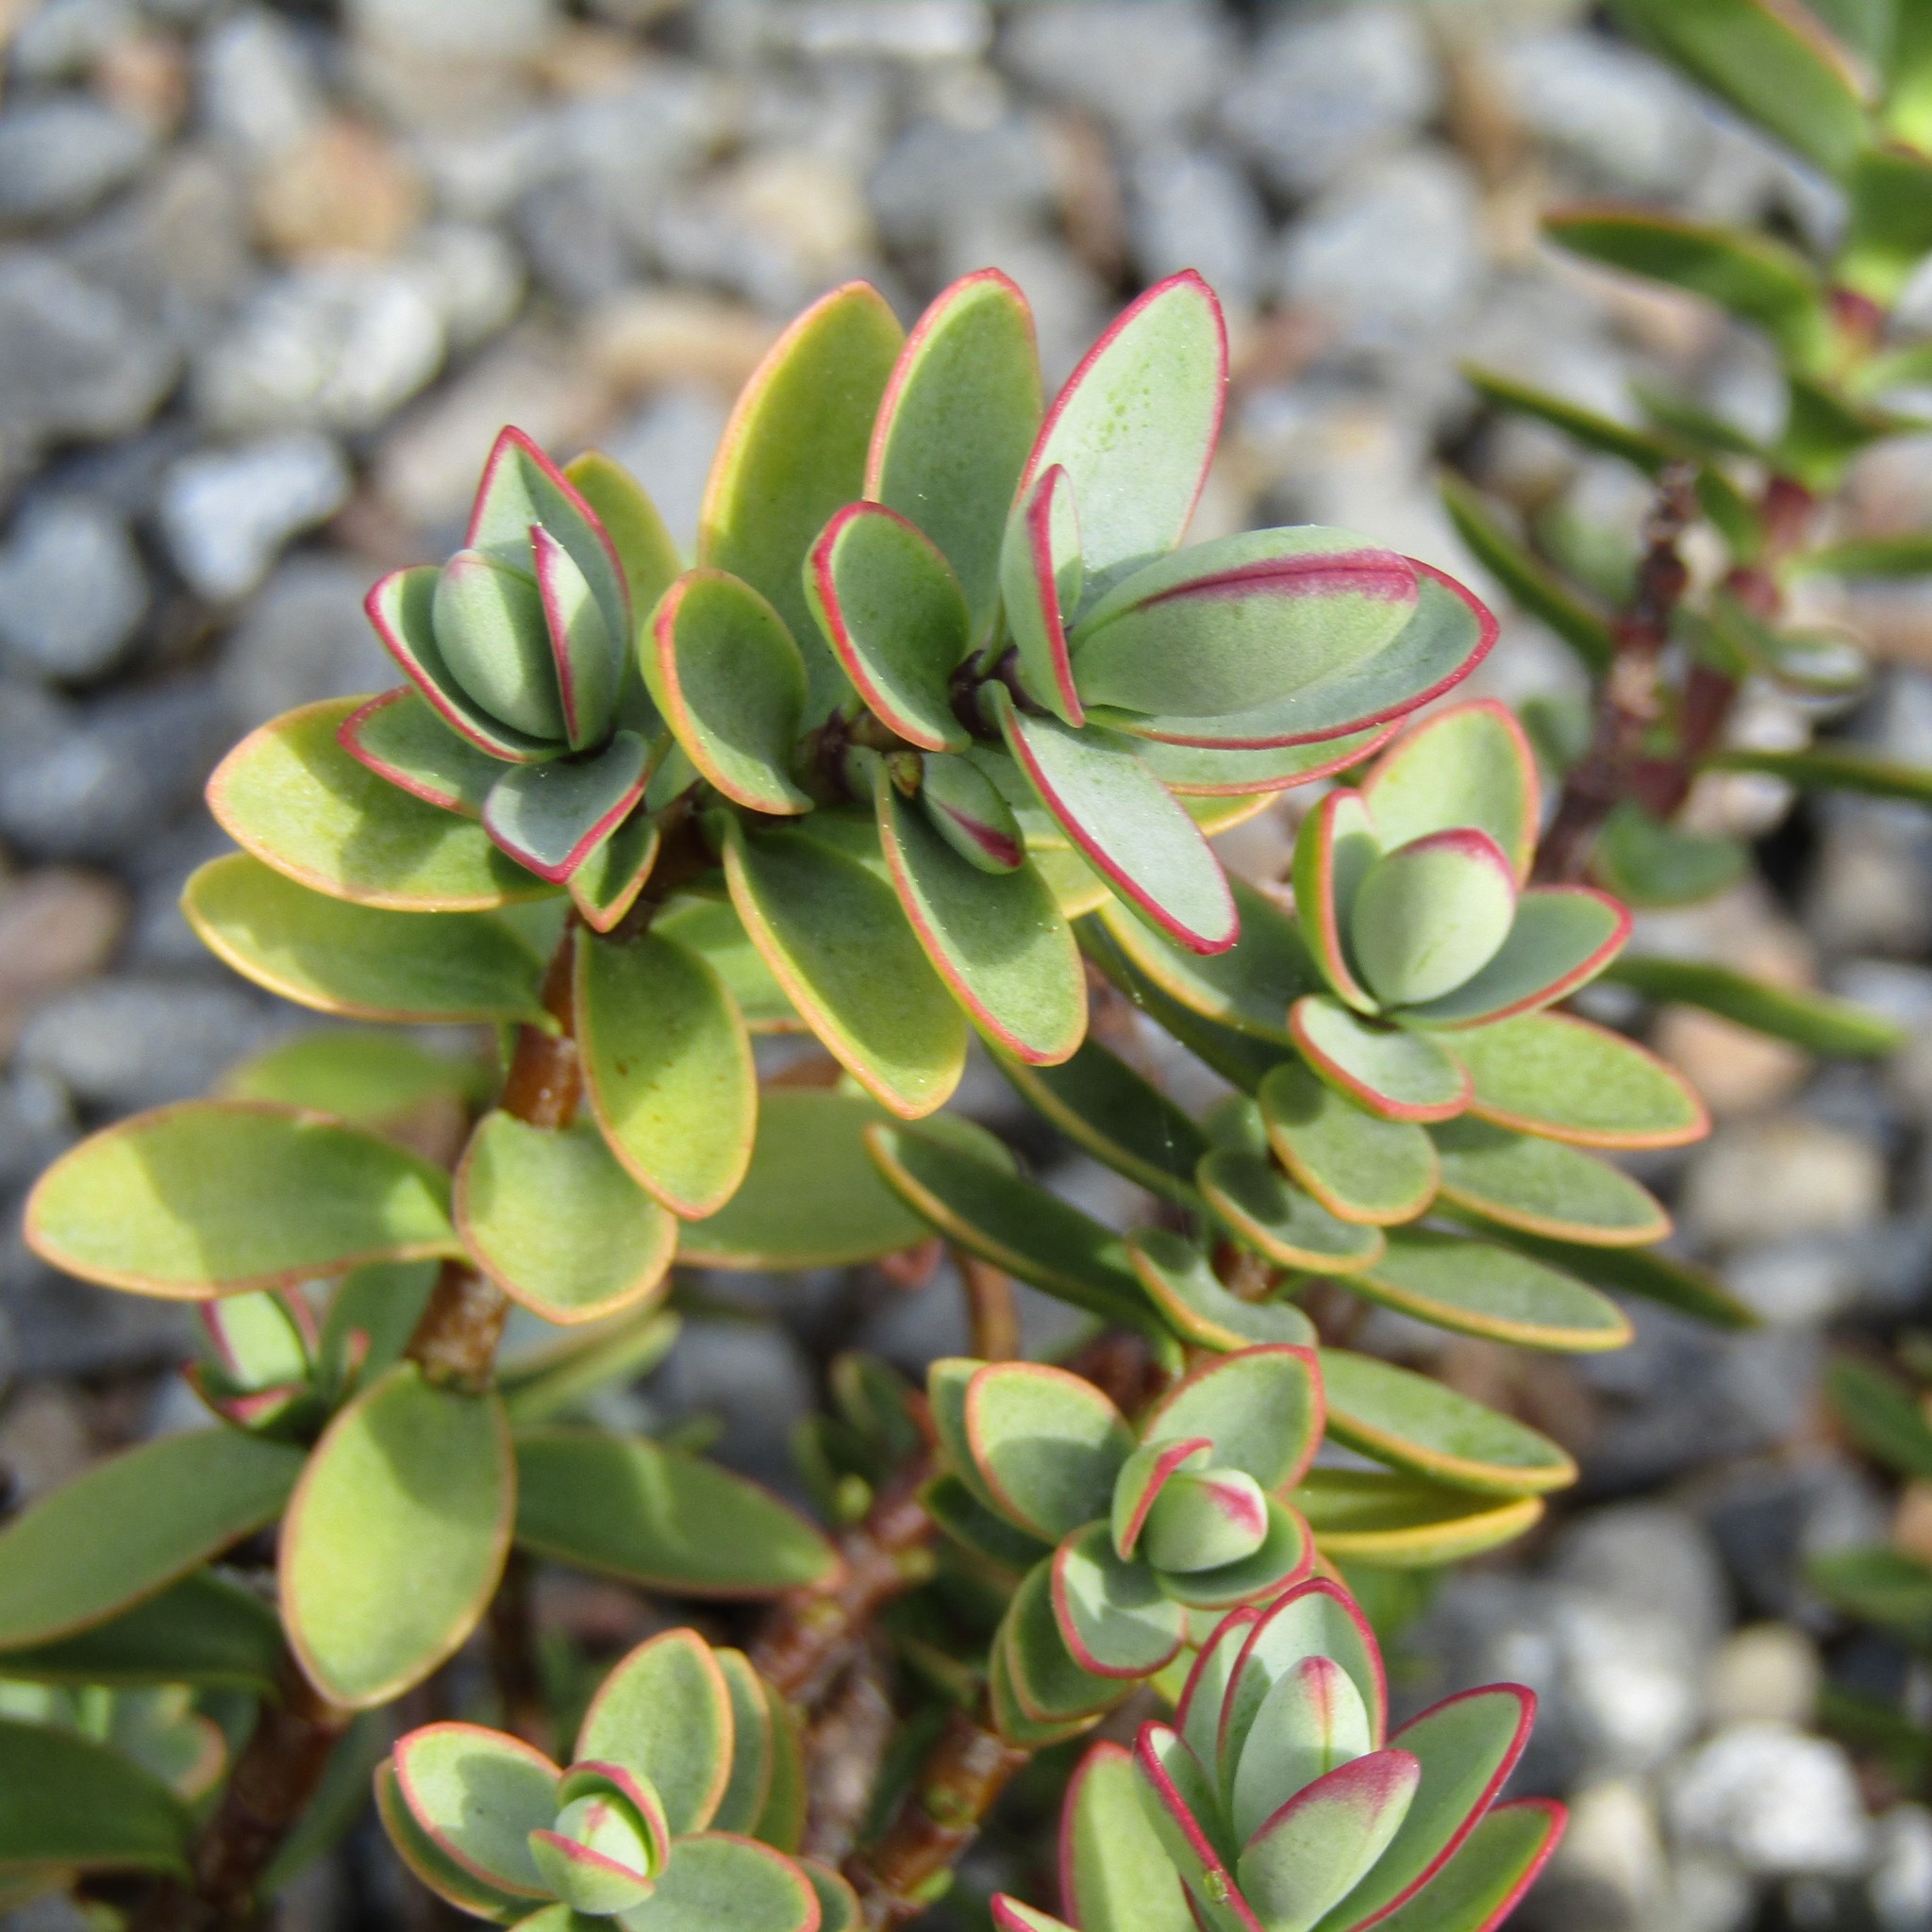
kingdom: Plantae
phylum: Tracheophyta
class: Magnoliopsida
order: Lamiales
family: Plantaginaceae
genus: Veronica
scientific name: Veronica pinguifolia
